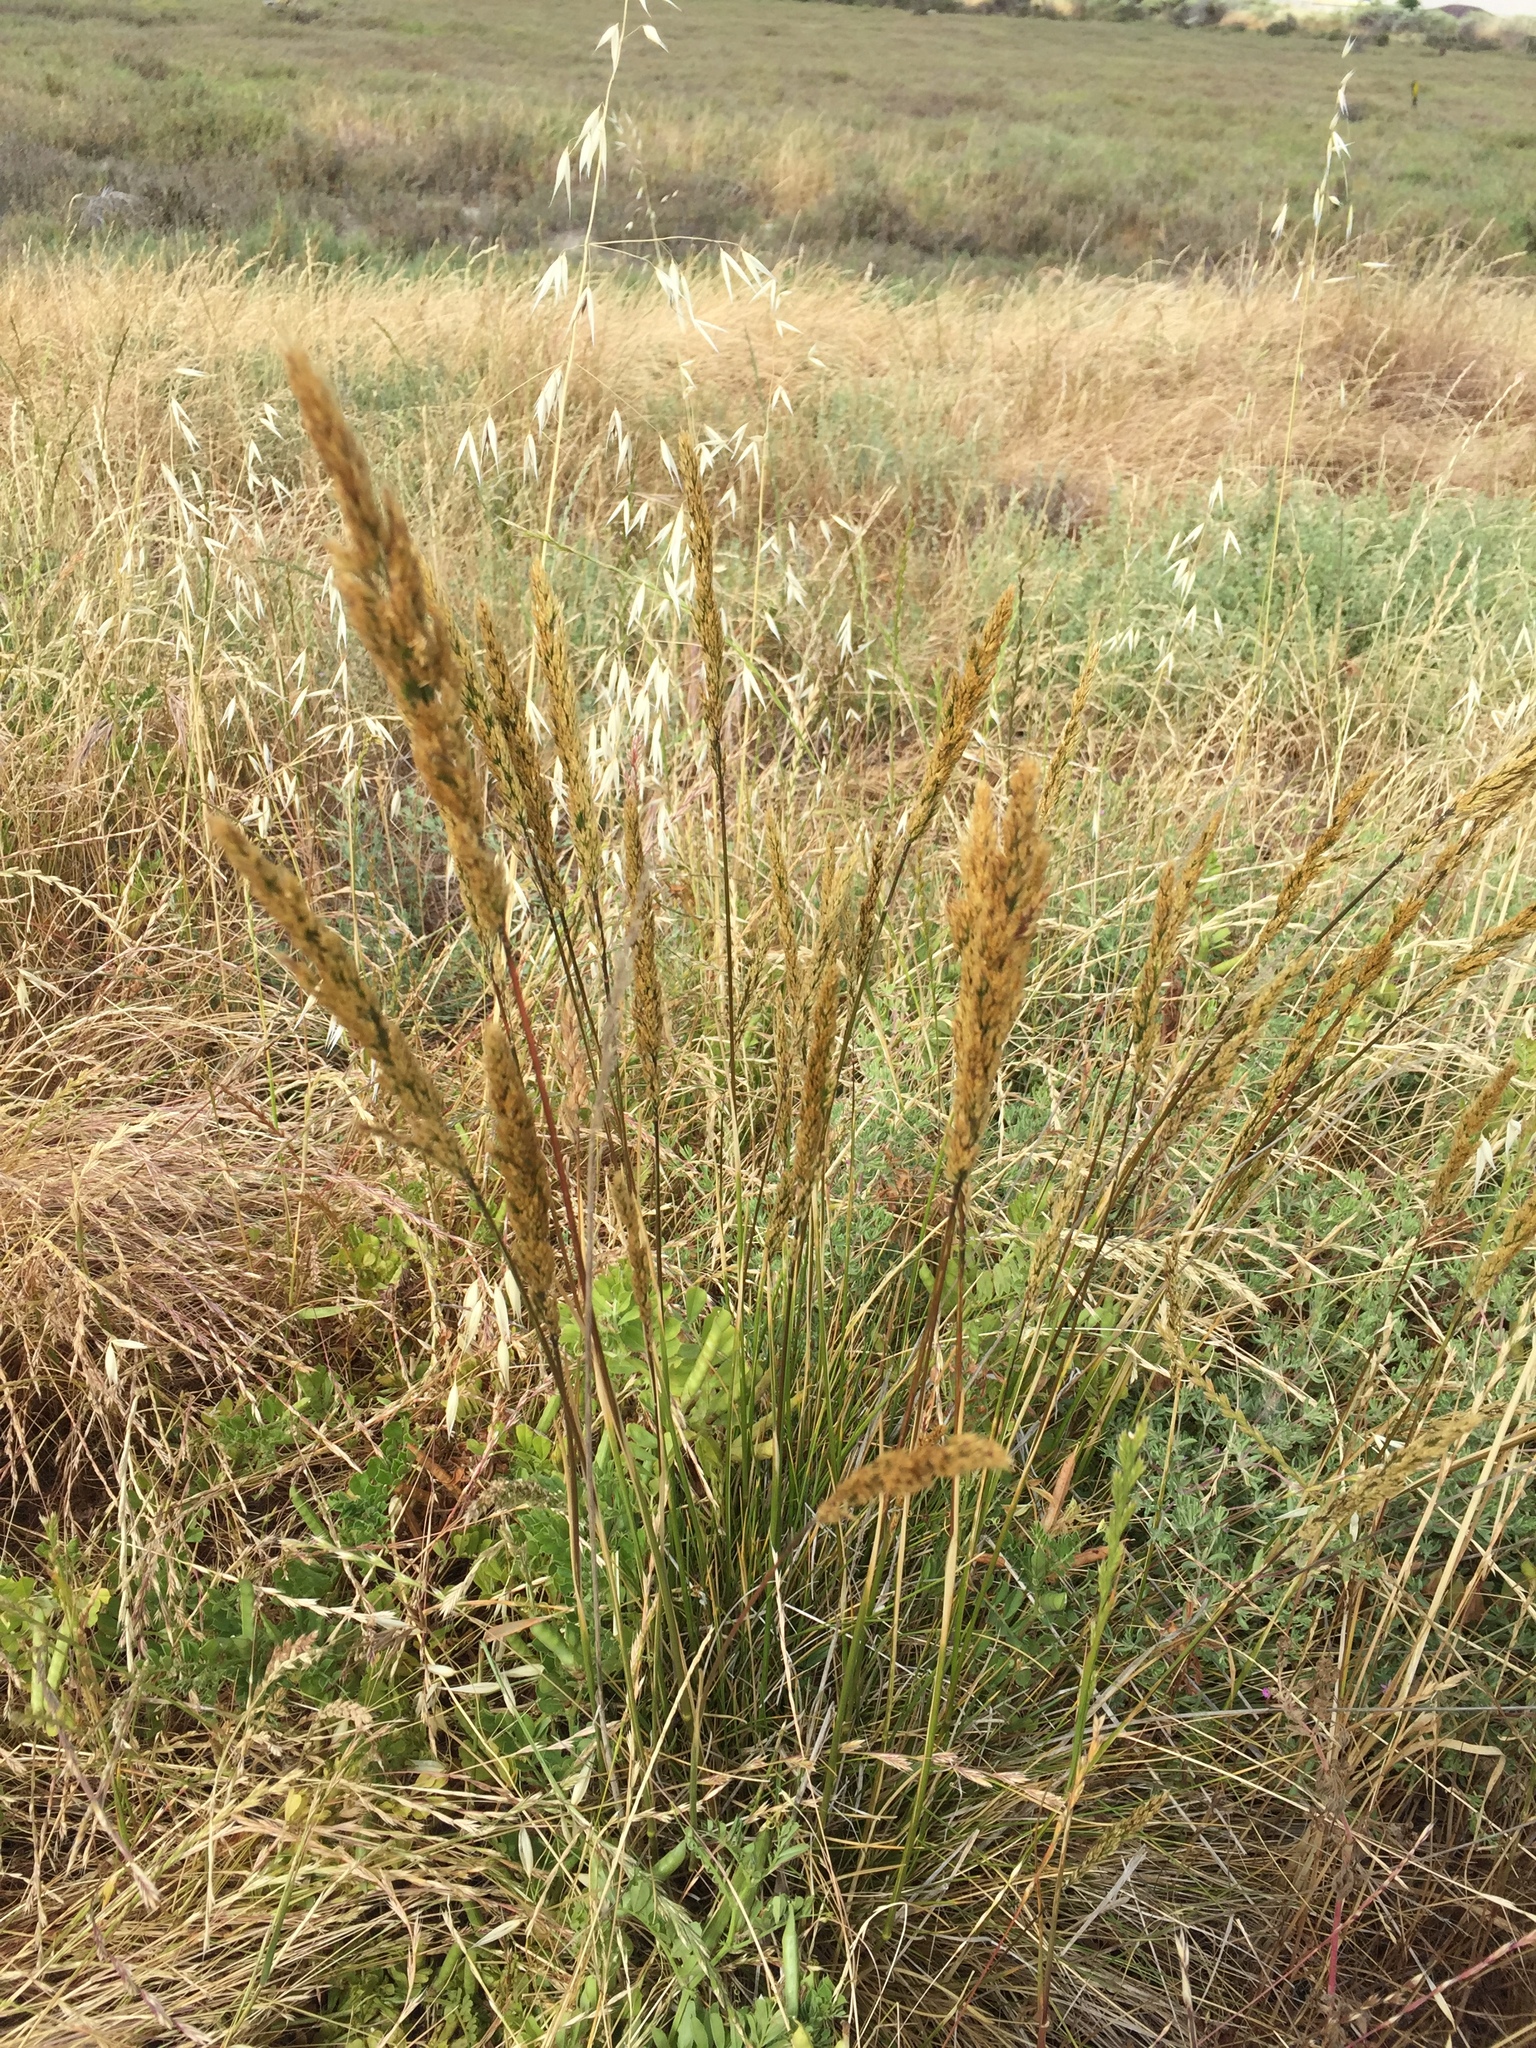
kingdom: Plantae
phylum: Tracheophyta
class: Liliopsida
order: Poales
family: Poaceae
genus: Deschampsia
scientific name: Deschampsia cespitosa
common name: Tufted hair-grass
